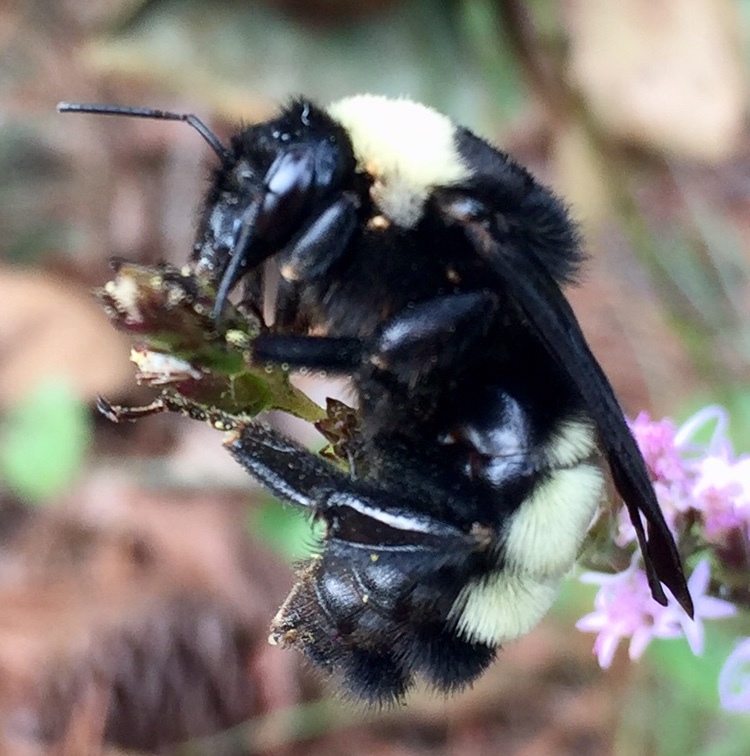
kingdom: Animalia
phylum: Arthropoda
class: Insecta
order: Hymenoptera
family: Apidae
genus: Bombus
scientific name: Bombus pensylvanicus
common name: Bumble bee
